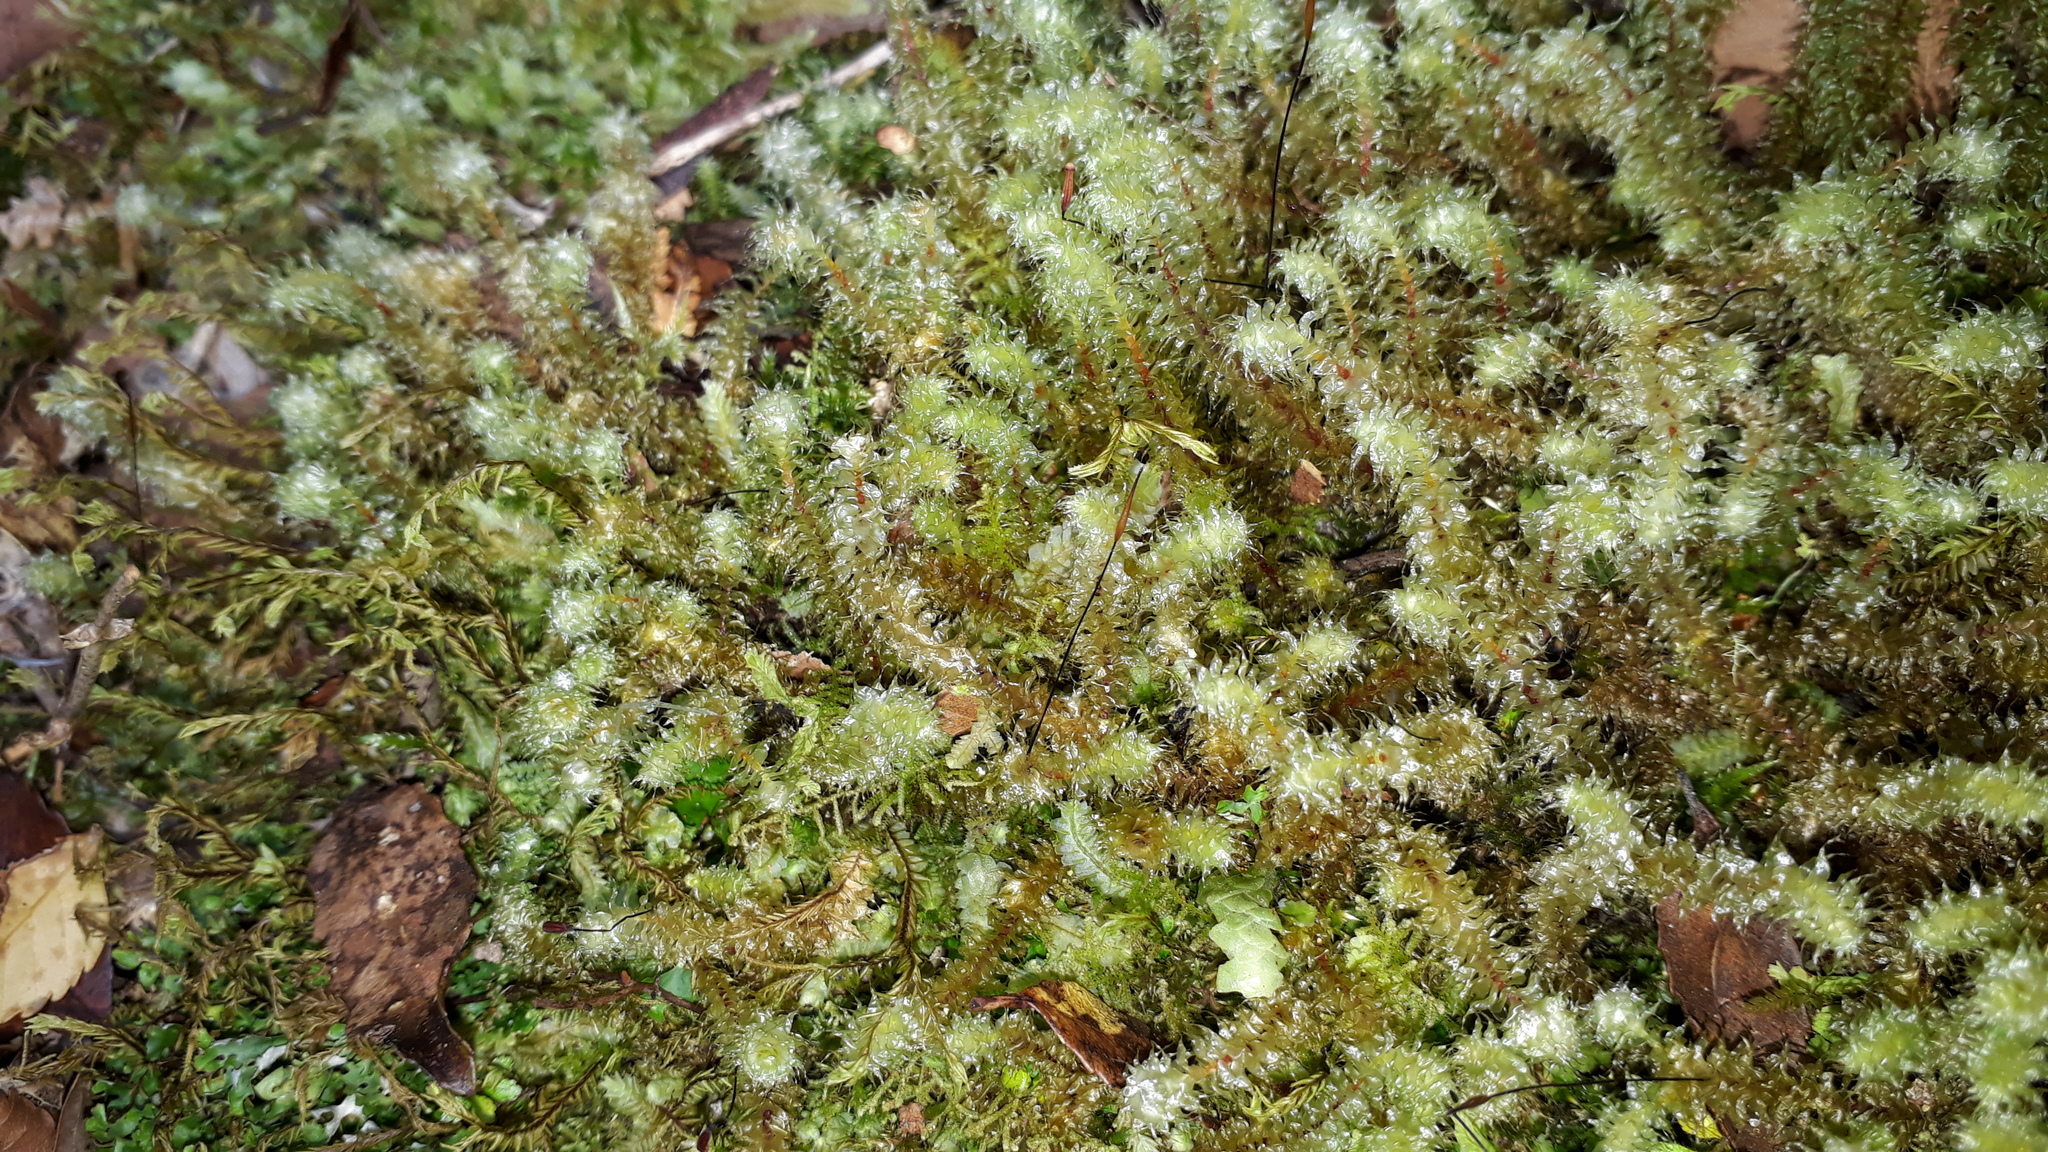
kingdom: Plantae
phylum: Bryophyta
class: Bryopsida
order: Ptychomniales
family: Ptychomniaceae
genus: Ptychomnion
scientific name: Ptychomnion aciculare
